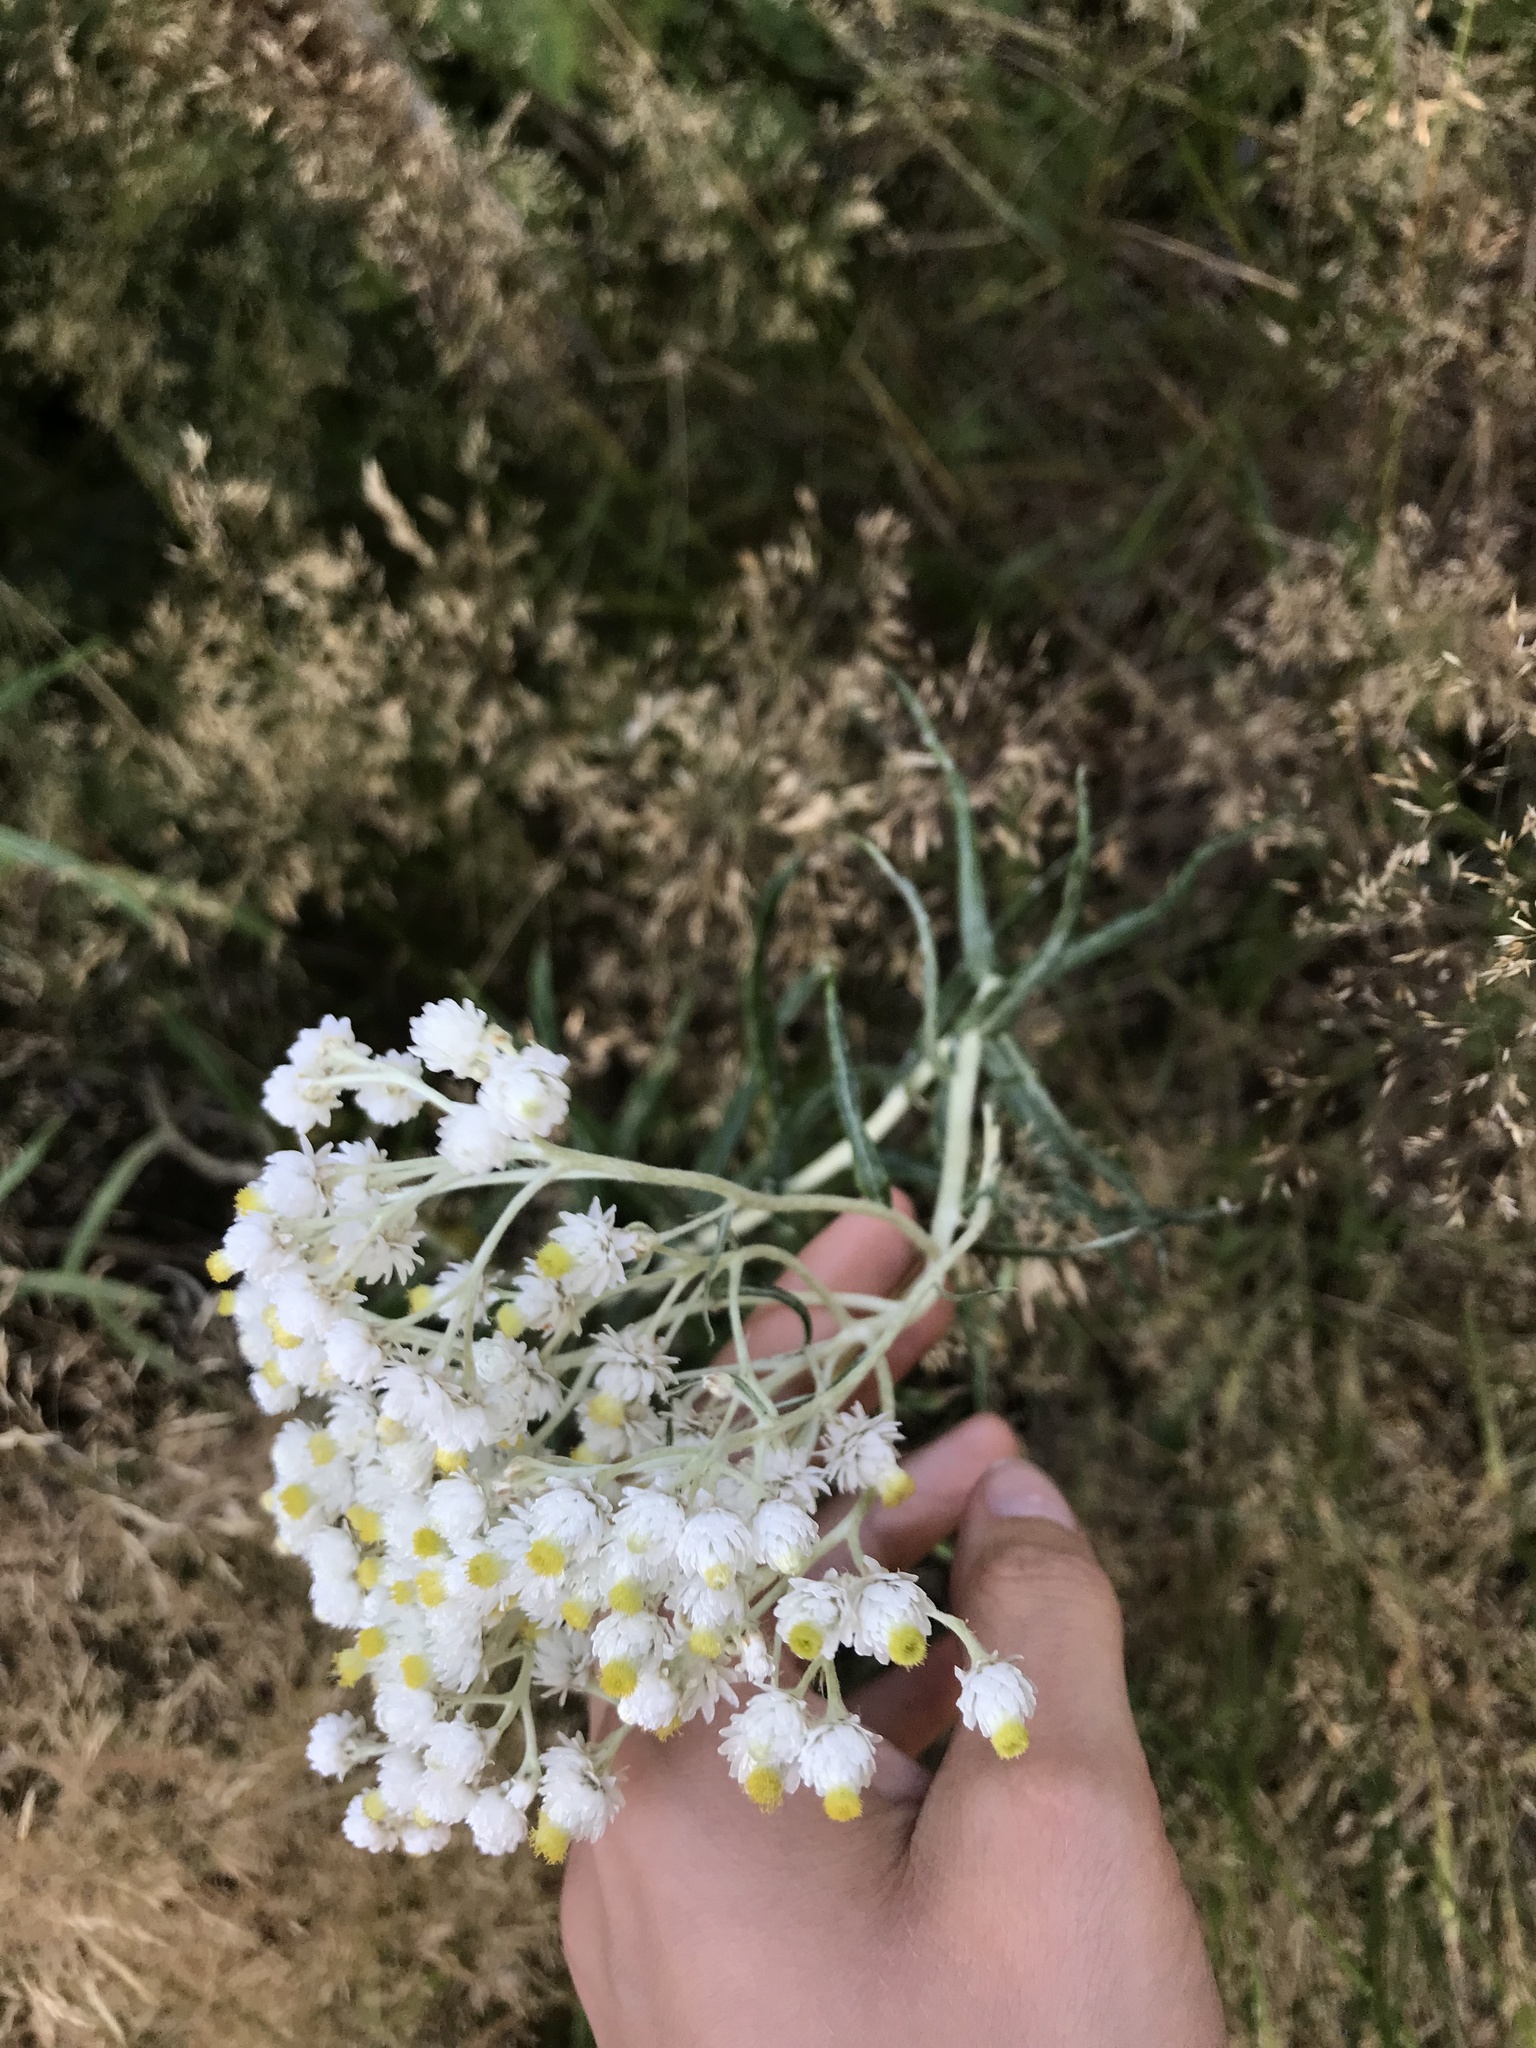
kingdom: Plantae
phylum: Tracheophyta
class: Magnoliopsida
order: Asterales
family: Asteraceae
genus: Anaphalis
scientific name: Anaphalis margaritacea
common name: Pearly everlasting
